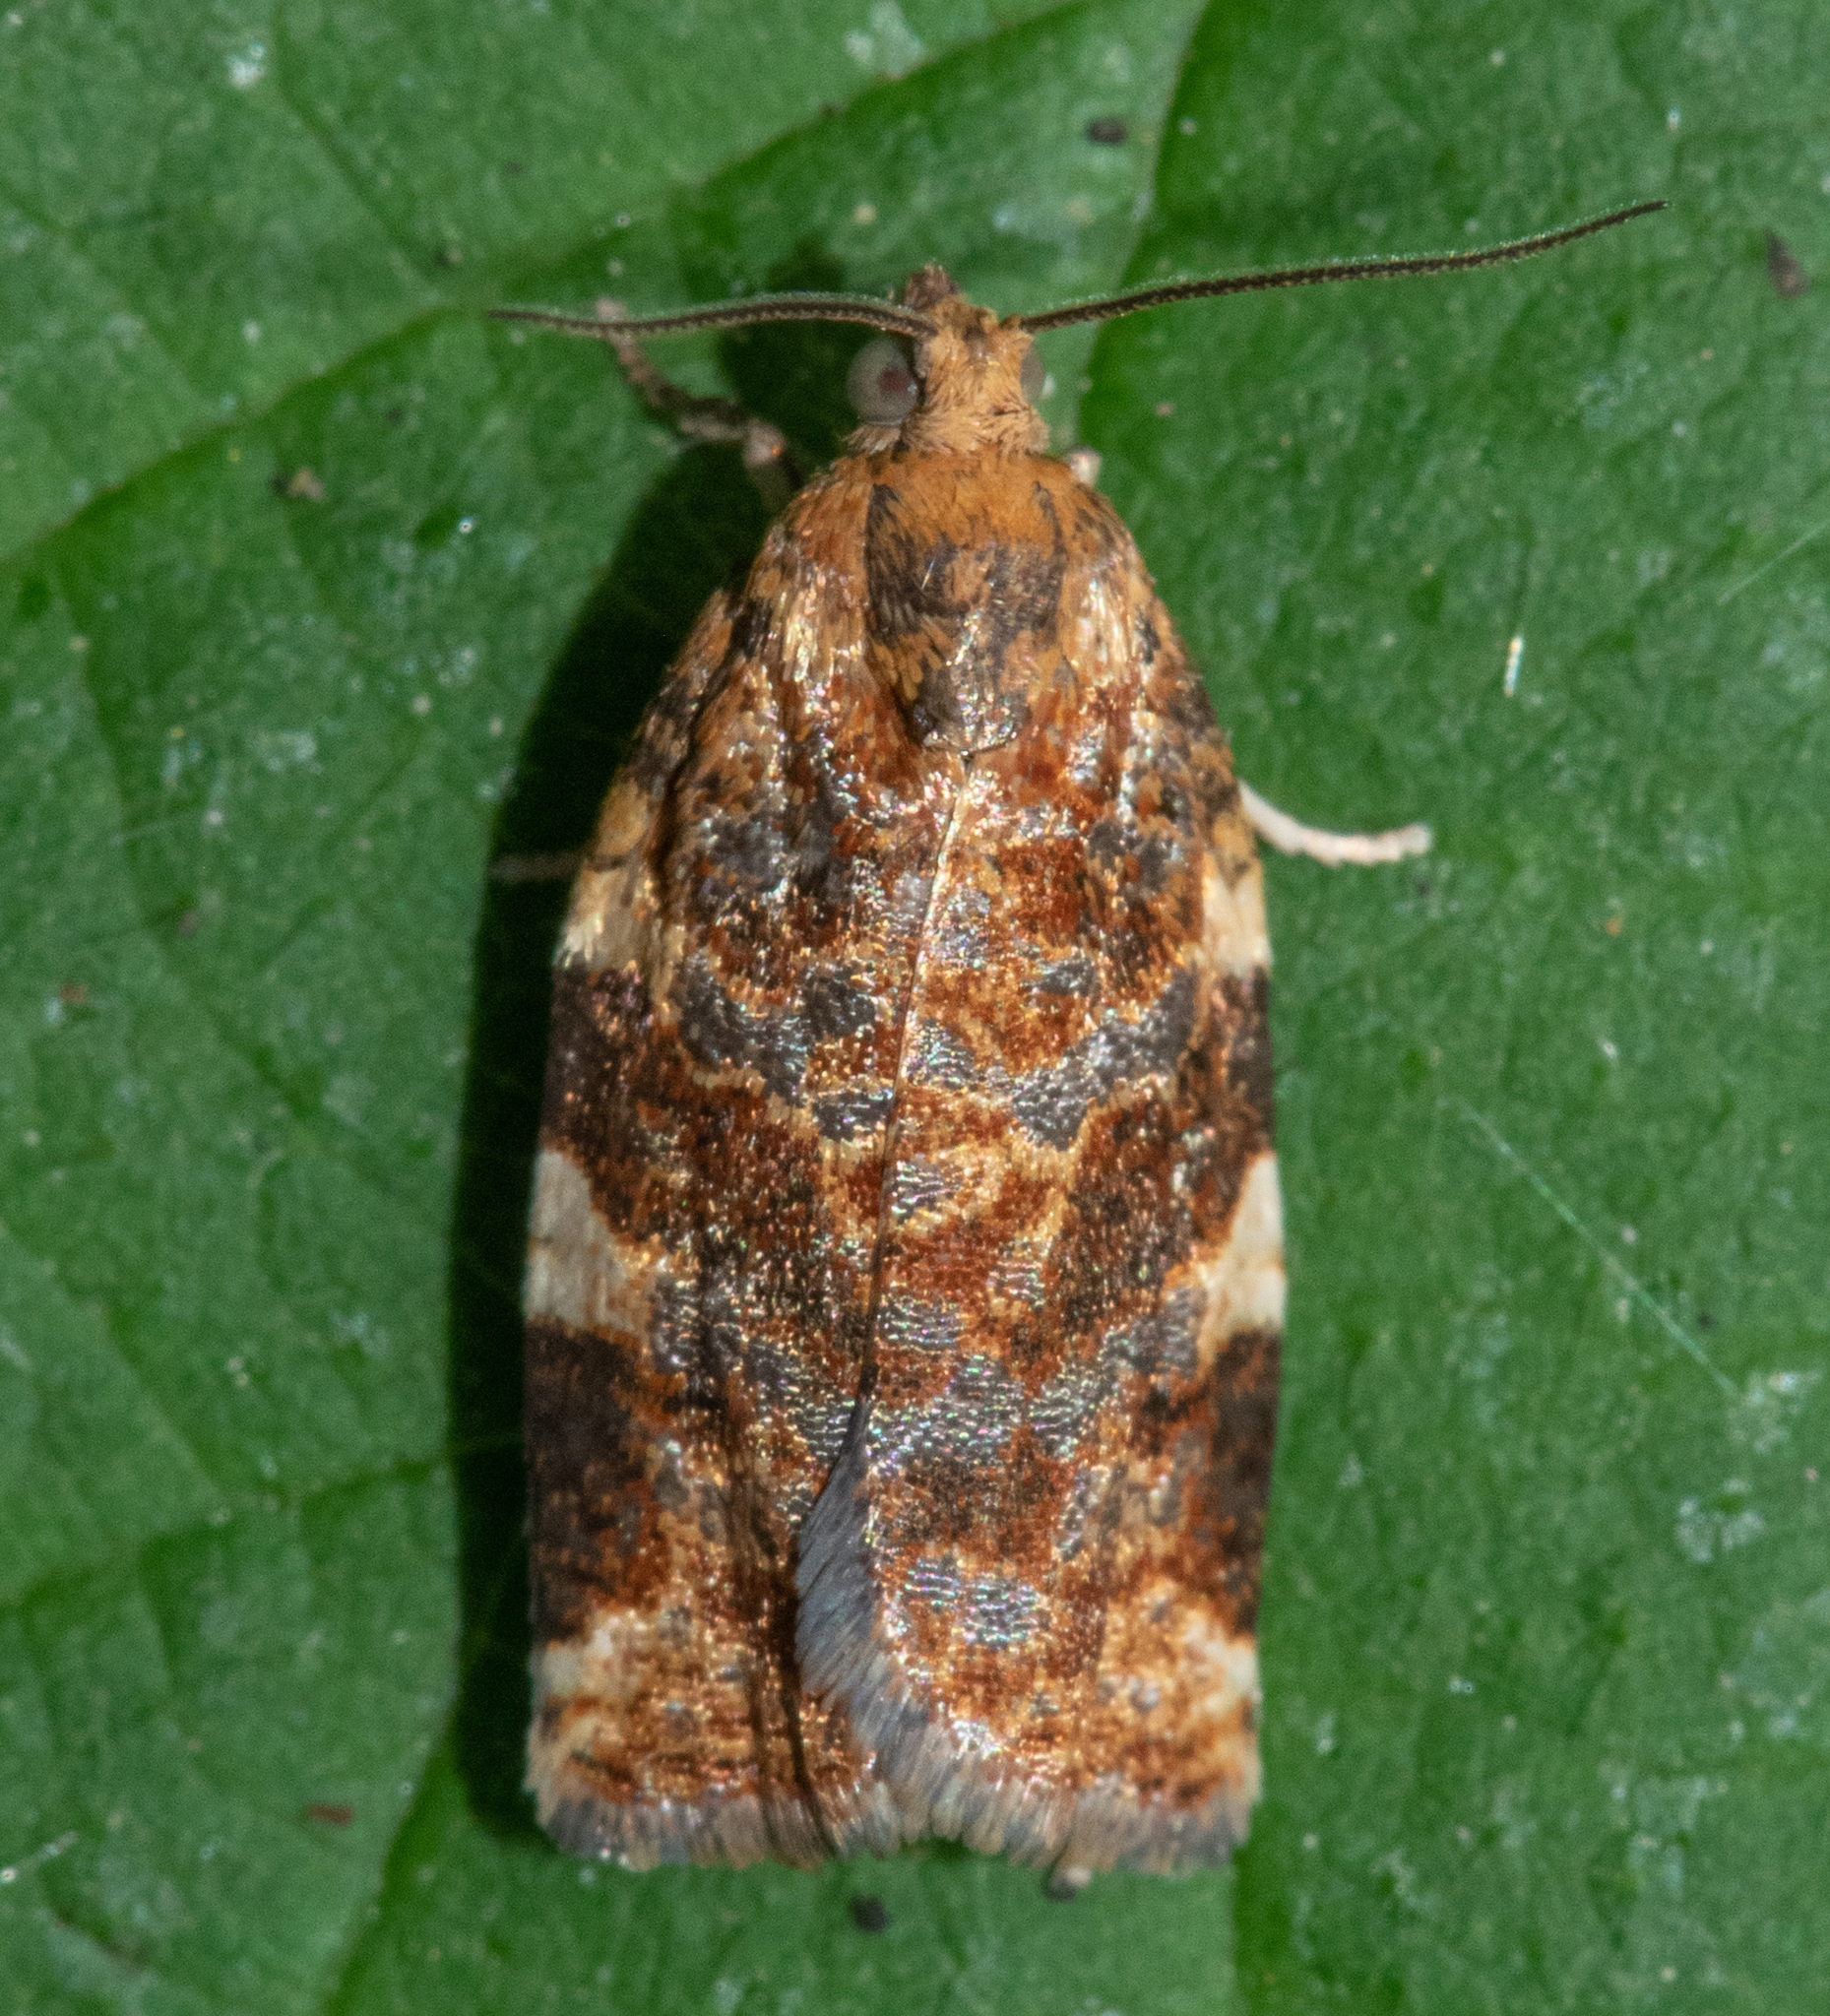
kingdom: Animalia
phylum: Arthropoda
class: Insecta
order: Lepidoptera
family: Tortricidae
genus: Archips
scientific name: Archips argyrospila
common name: Fruit-tree leafroller moth
